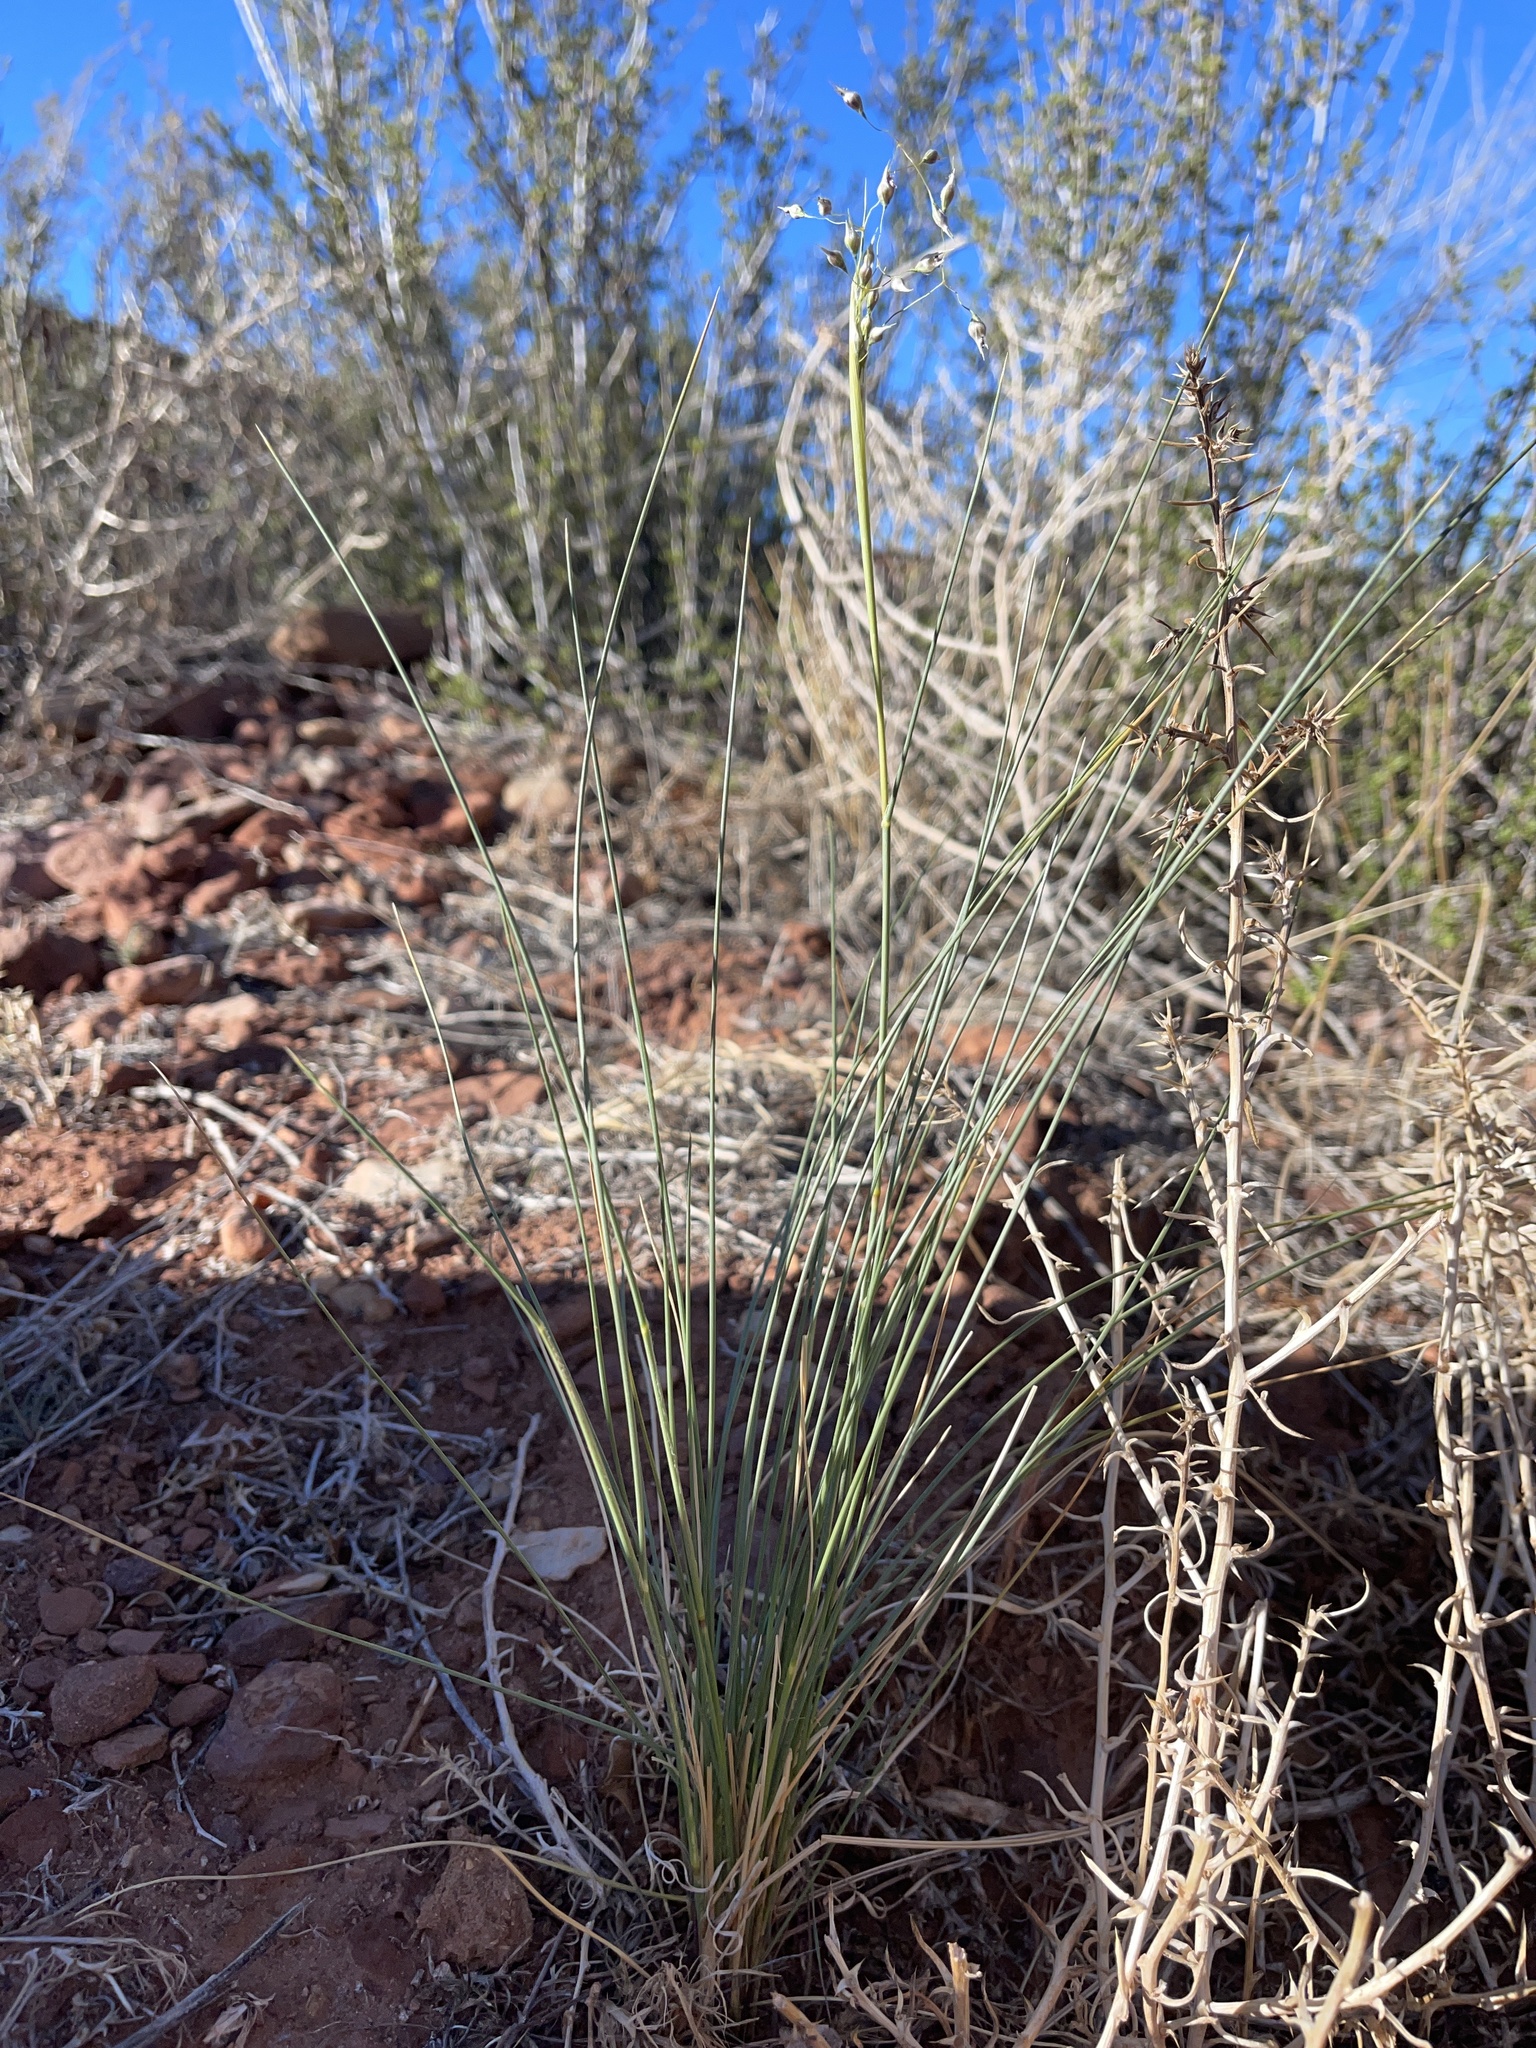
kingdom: Plantae
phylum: Tracheophyta
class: Liliopsida
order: Poales
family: Poaceae
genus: Eriocoma
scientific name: Eriocoma hymenoides
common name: Indian mountain ricegrass
